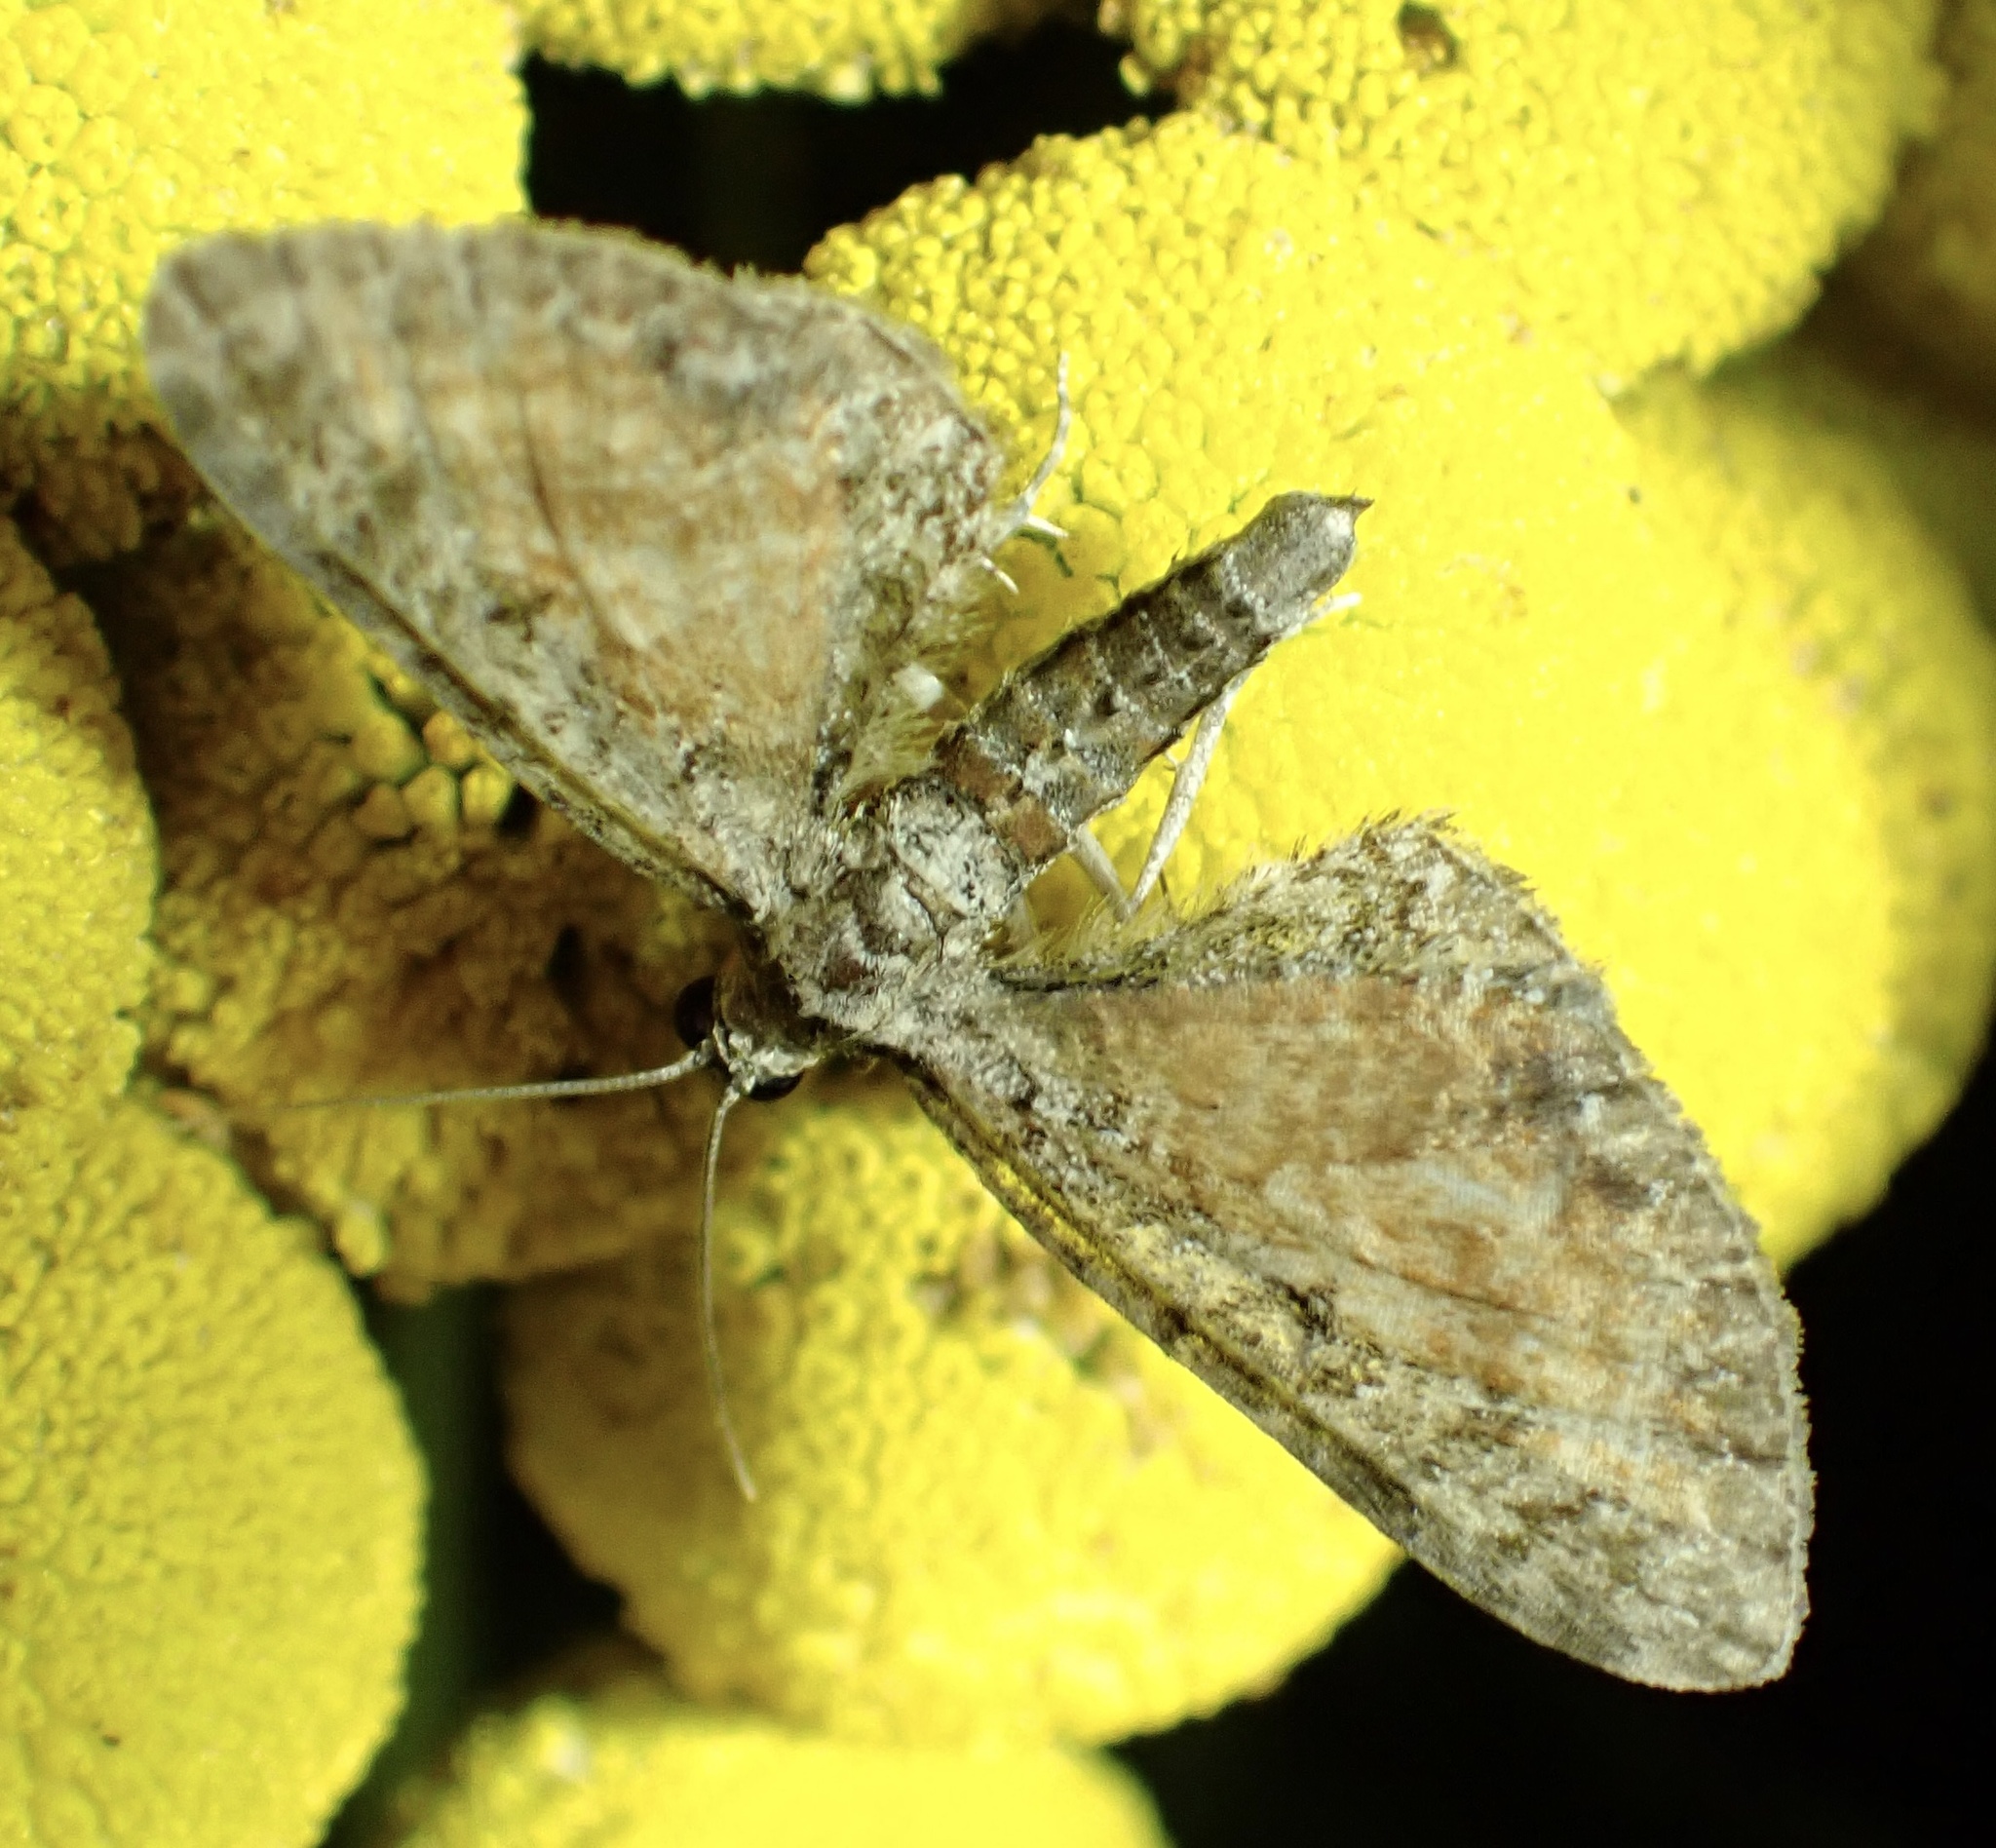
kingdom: Animalia
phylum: Arthropoda
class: Insecta
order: Lepidoptera
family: Geometridae
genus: Eupithecia
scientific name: Eupithecia icterata
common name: Tawny speckled pug
